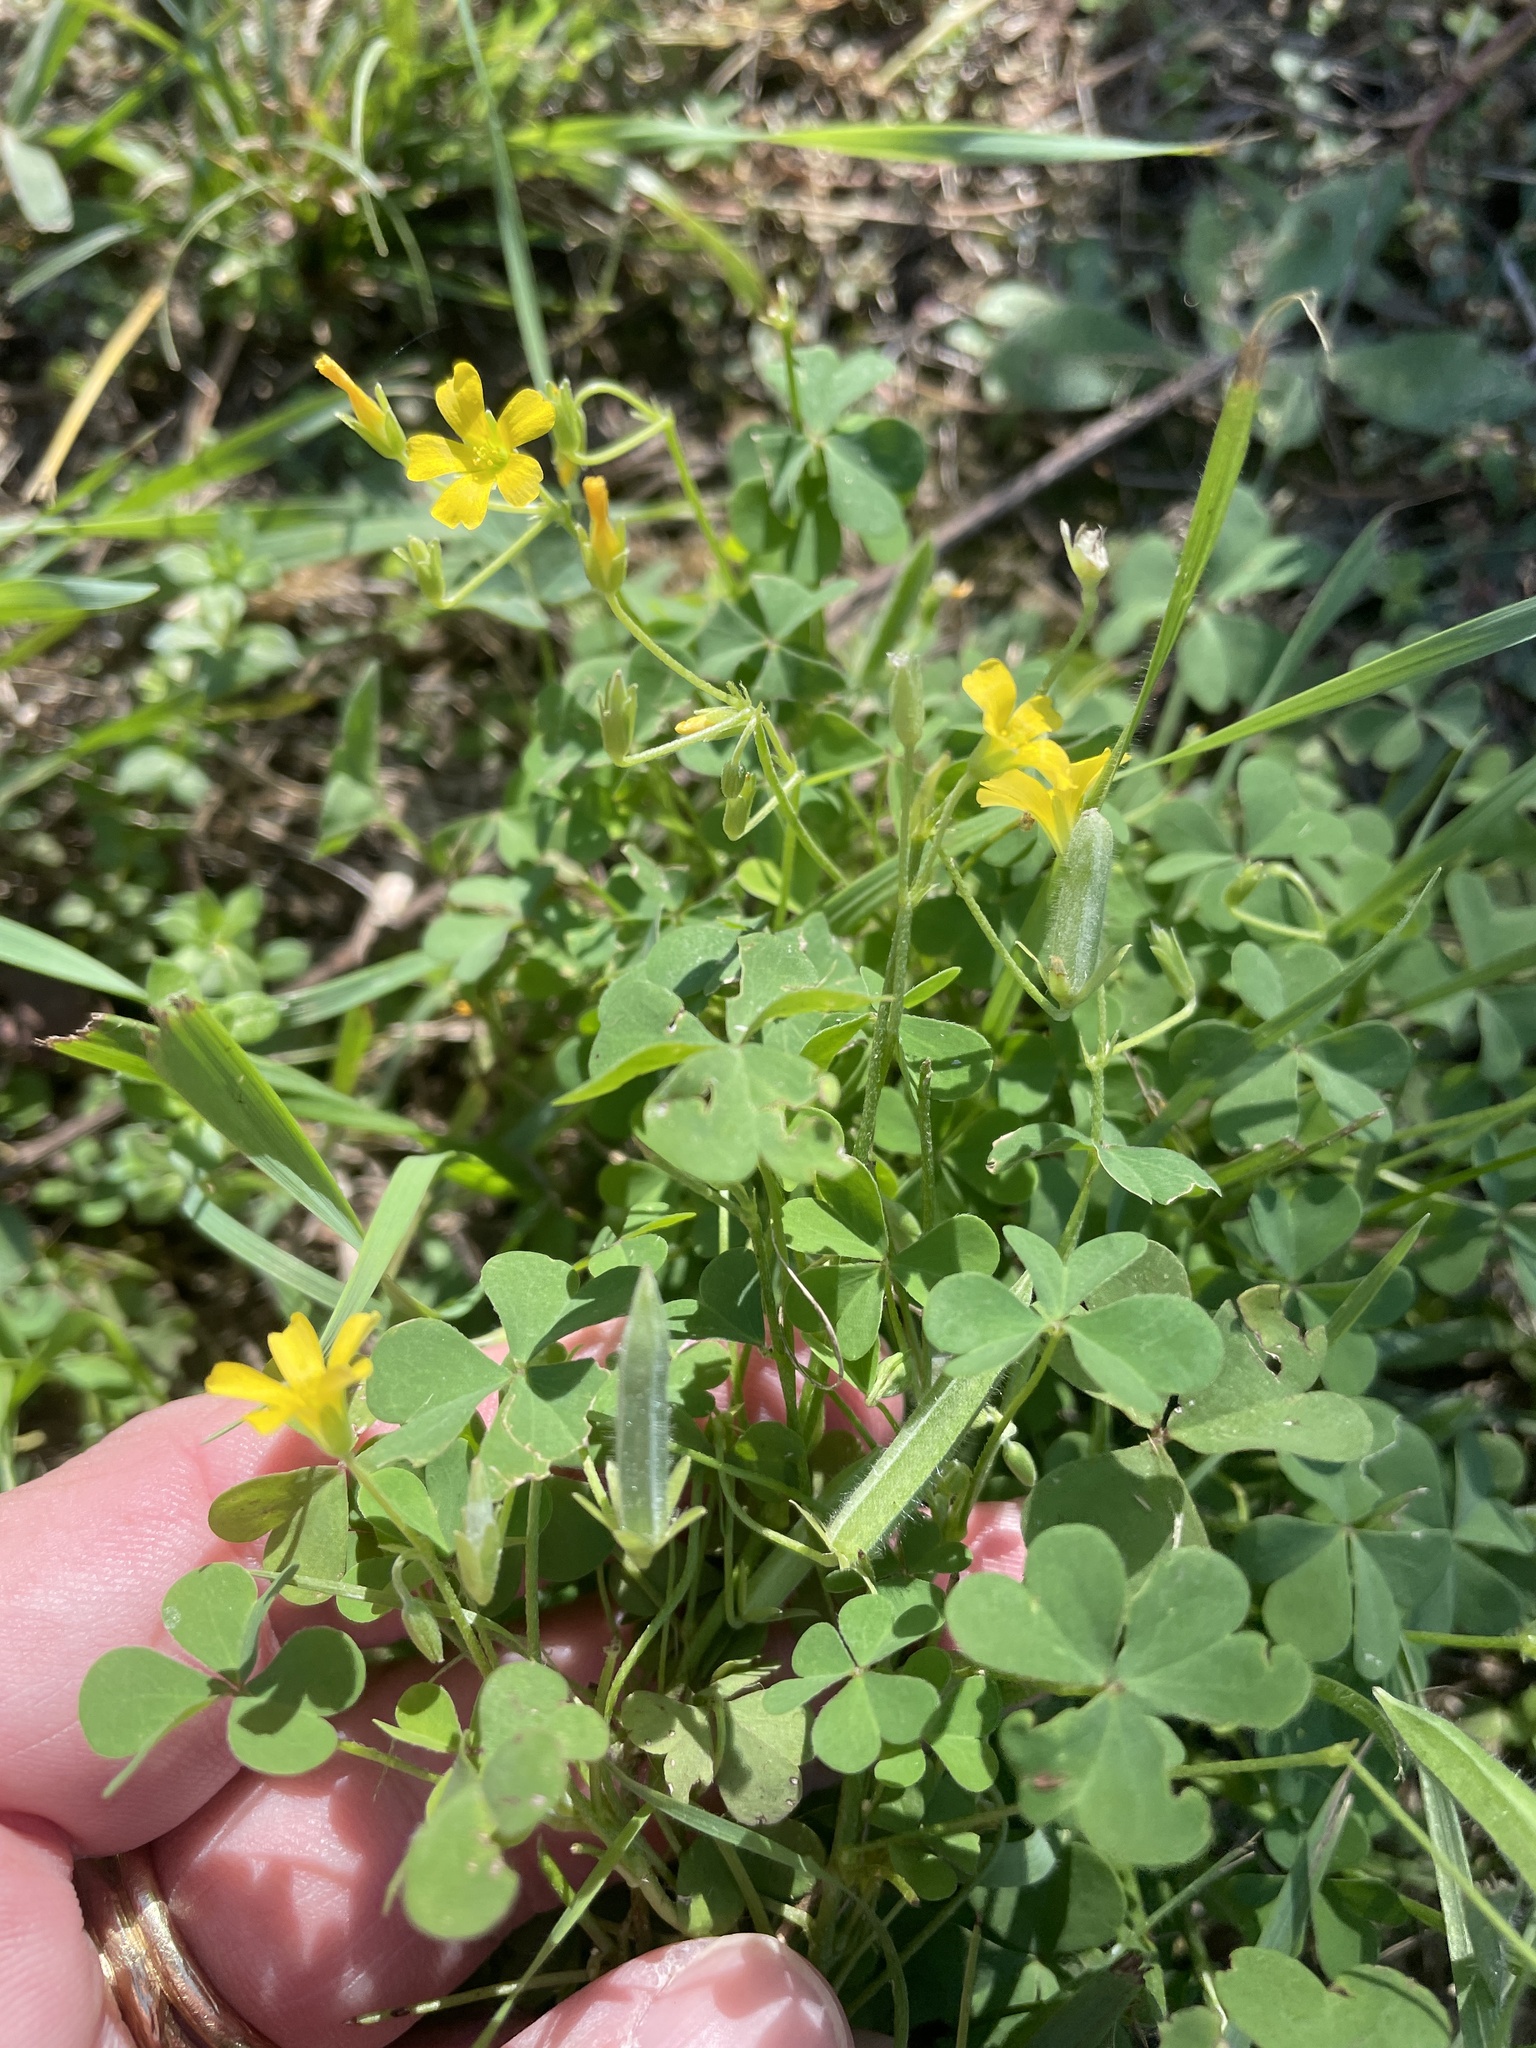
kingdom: Plantae
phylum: Tracheophyta
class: Magnoliopsida
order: Oxalidales
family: Oxalidaceae
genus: Oxalis
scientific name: Oxalis stricta
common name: Upright yellow-sorrel
